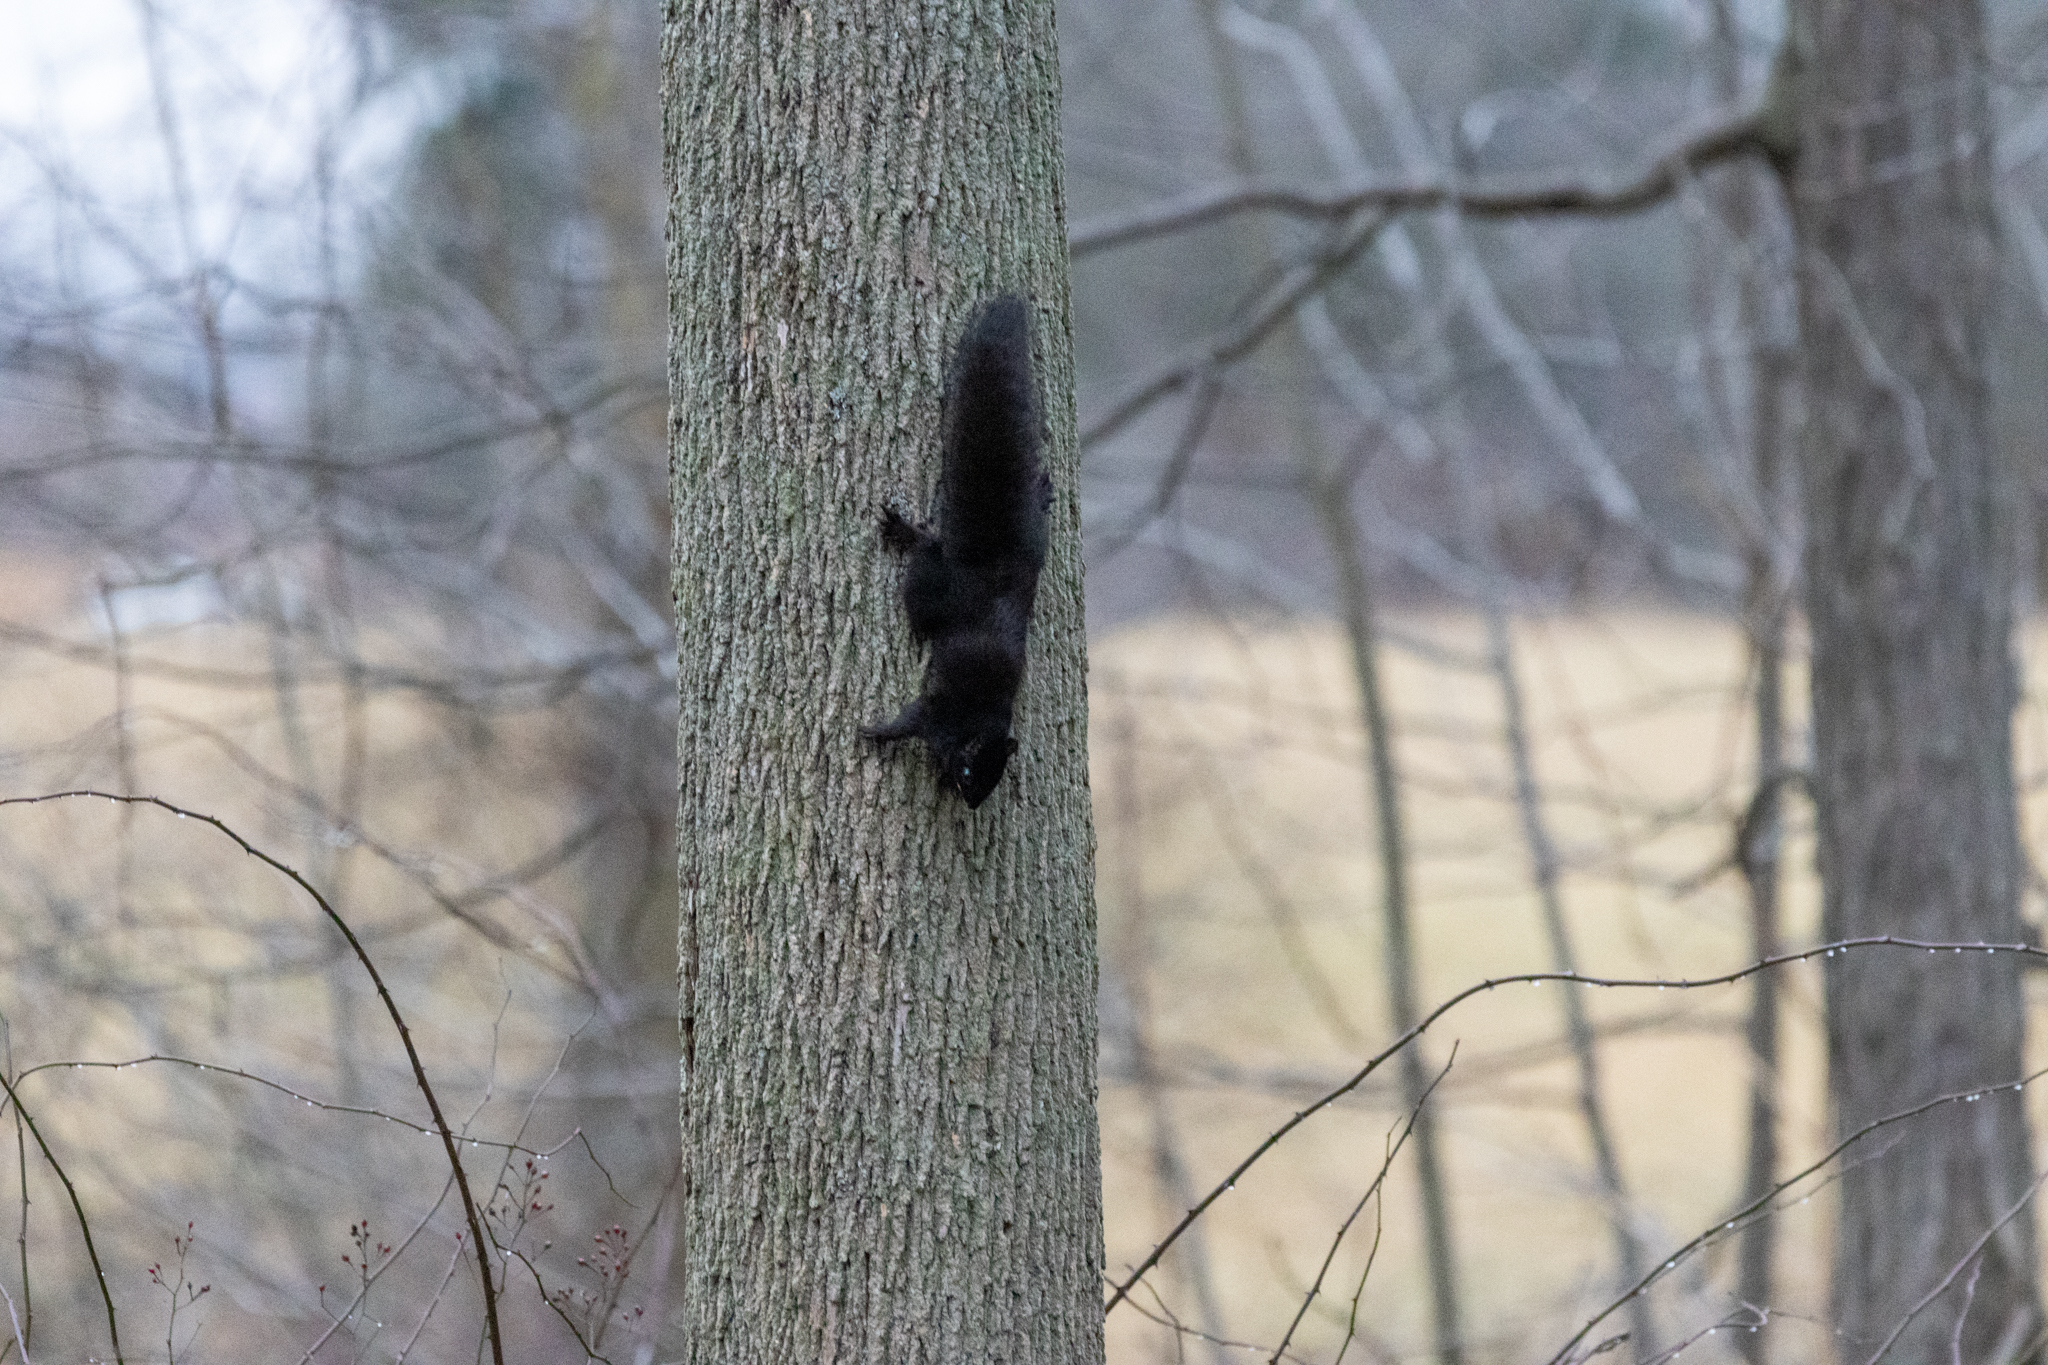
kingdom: Animalia
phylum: Chordata
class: Mammalia
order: Rodentia
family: Sciuridae
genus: Sciurus
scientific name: Sciurus carolinensis
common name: Eastern gray squirrel
